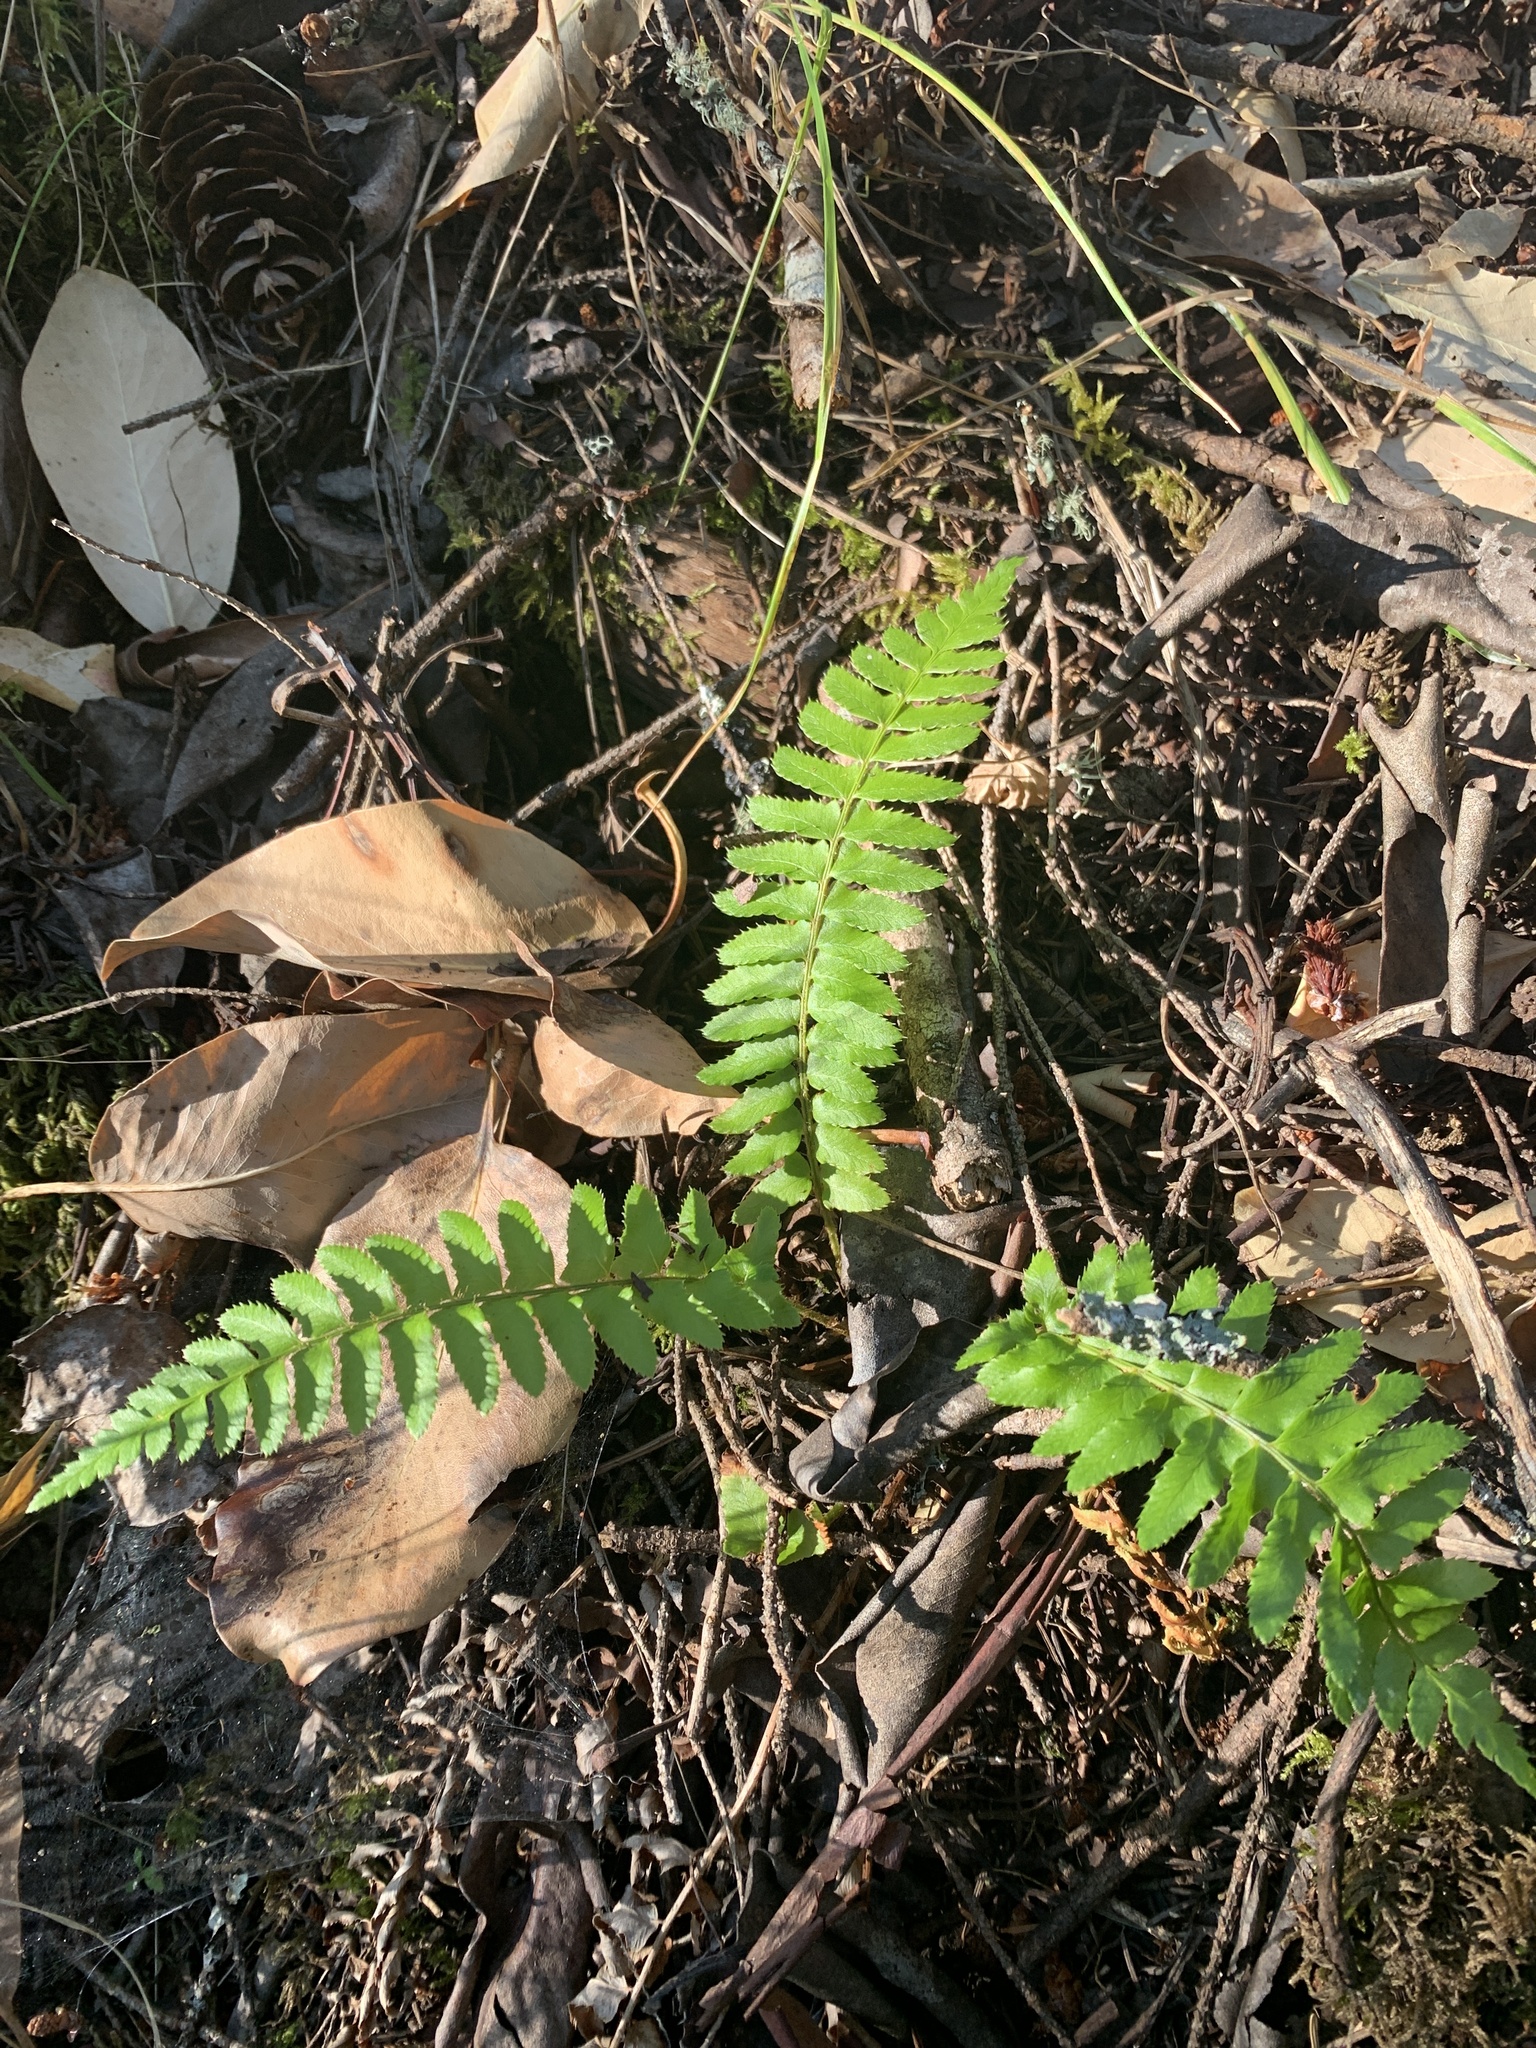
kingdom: Plantae
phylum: Tracheophyta
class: Polypodiopsida
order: Polypodiales
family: Dryopteridaceae
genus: Polystichum
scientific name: Polystichum munitum
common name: Western sword-fern
